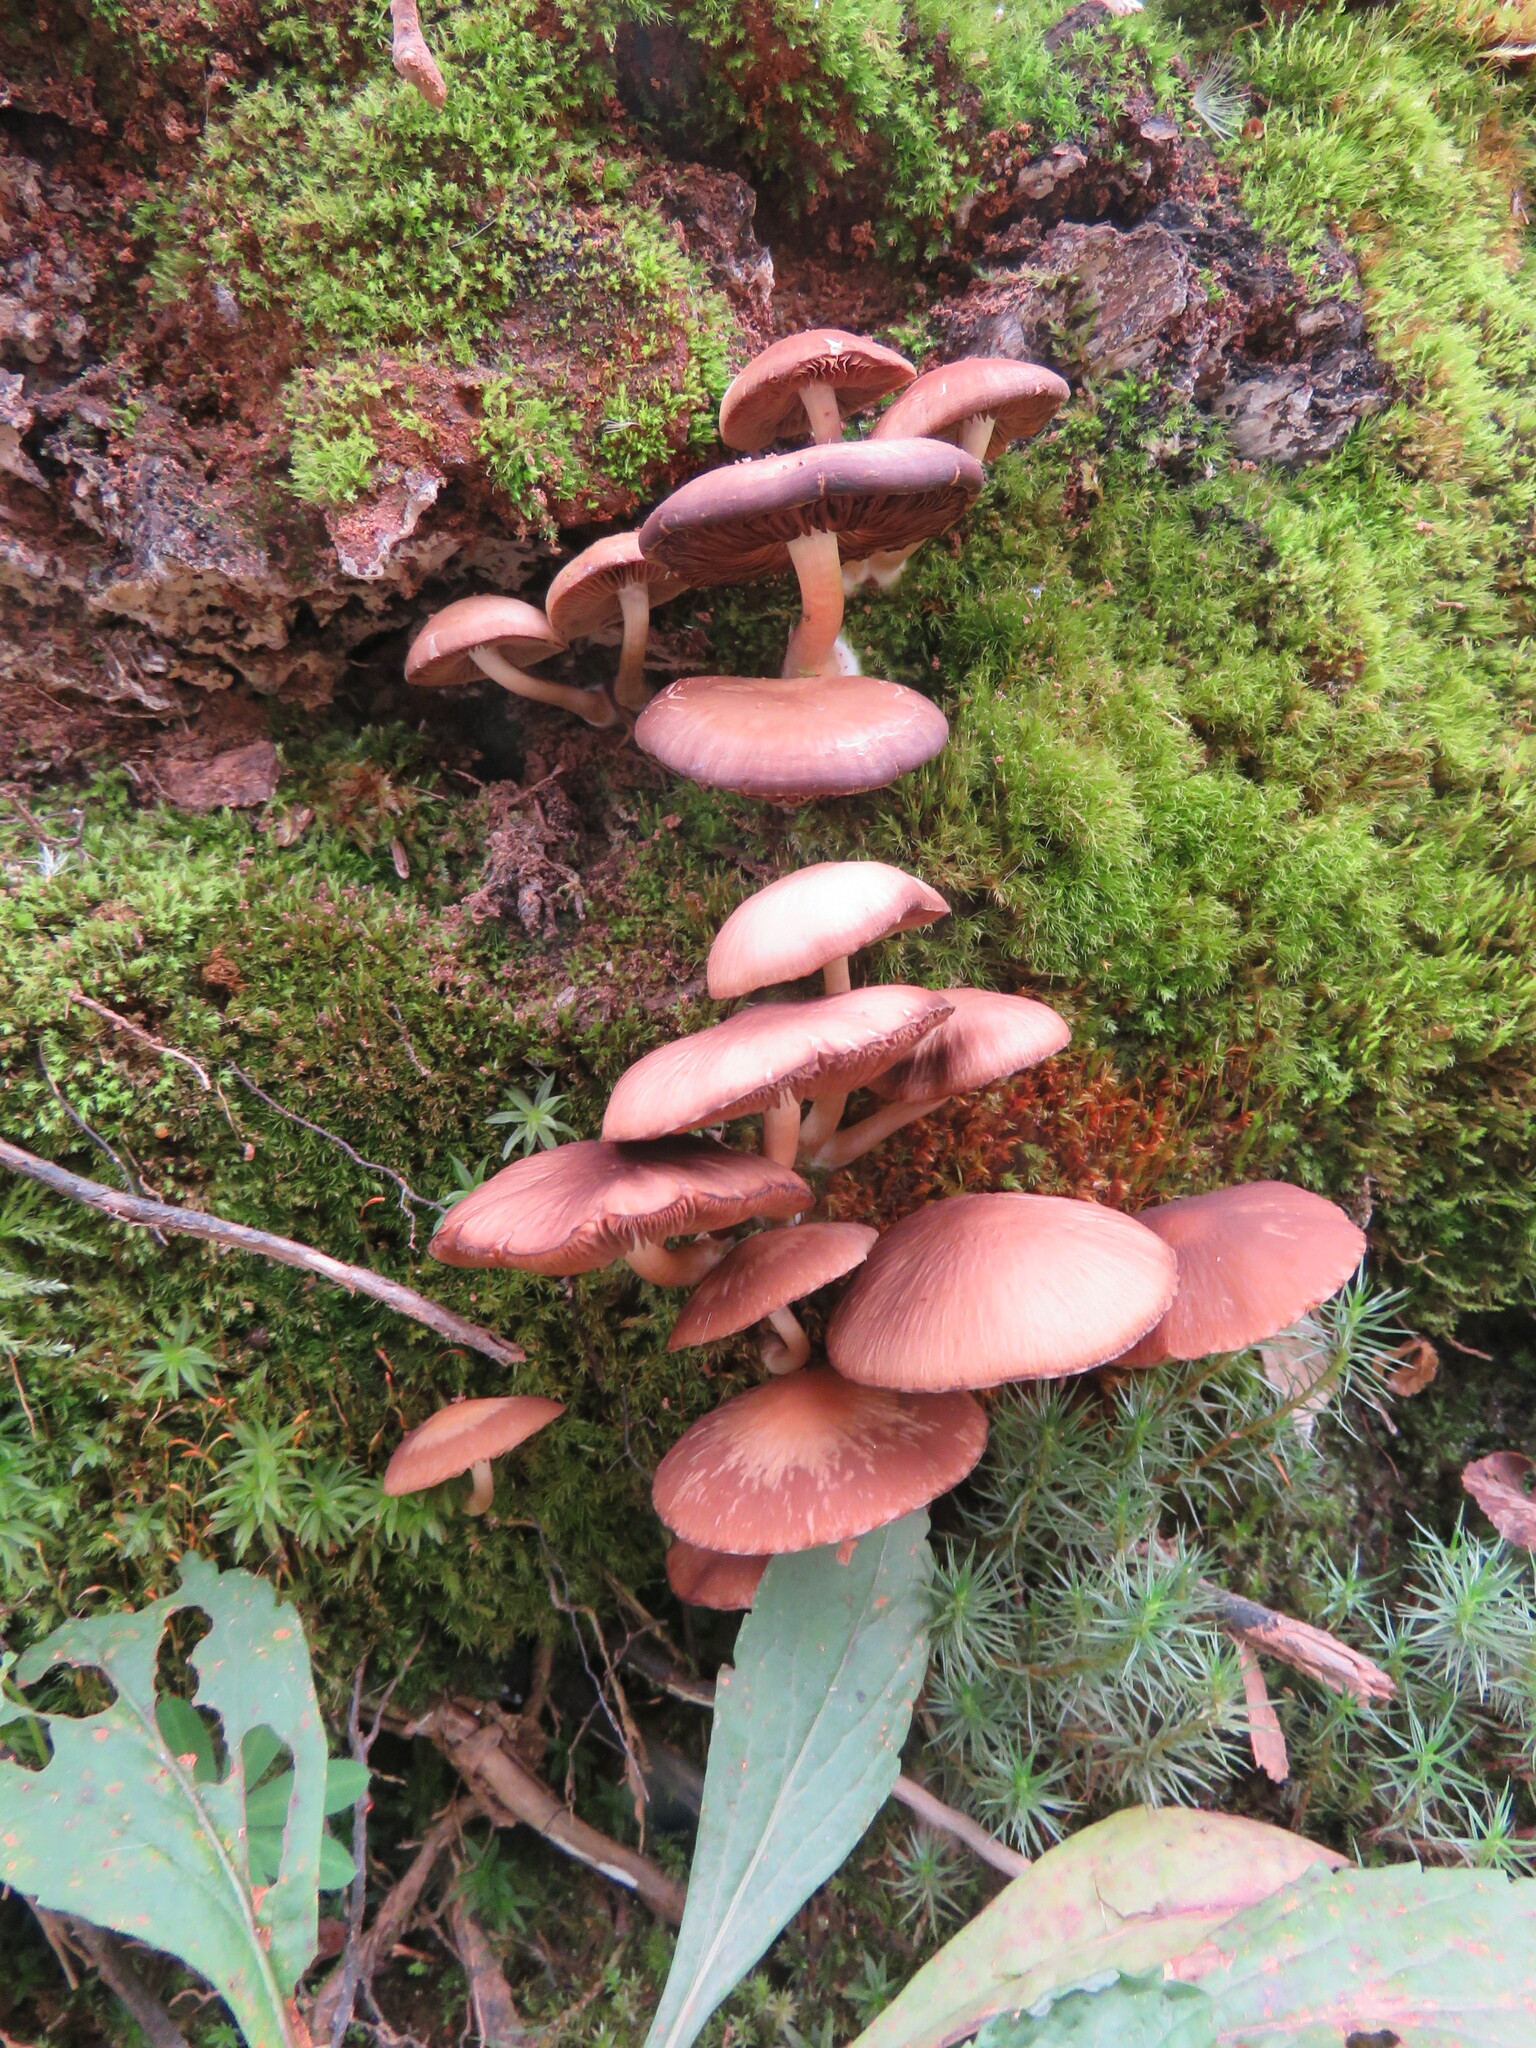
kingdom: Fungi
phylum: Basidiomycota
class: Agaricomycetes
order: Agaricales
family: Psathyrellaceae
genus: Psathyrella
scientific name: Psathyrella piluliformis
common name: Common stump brittlestem
